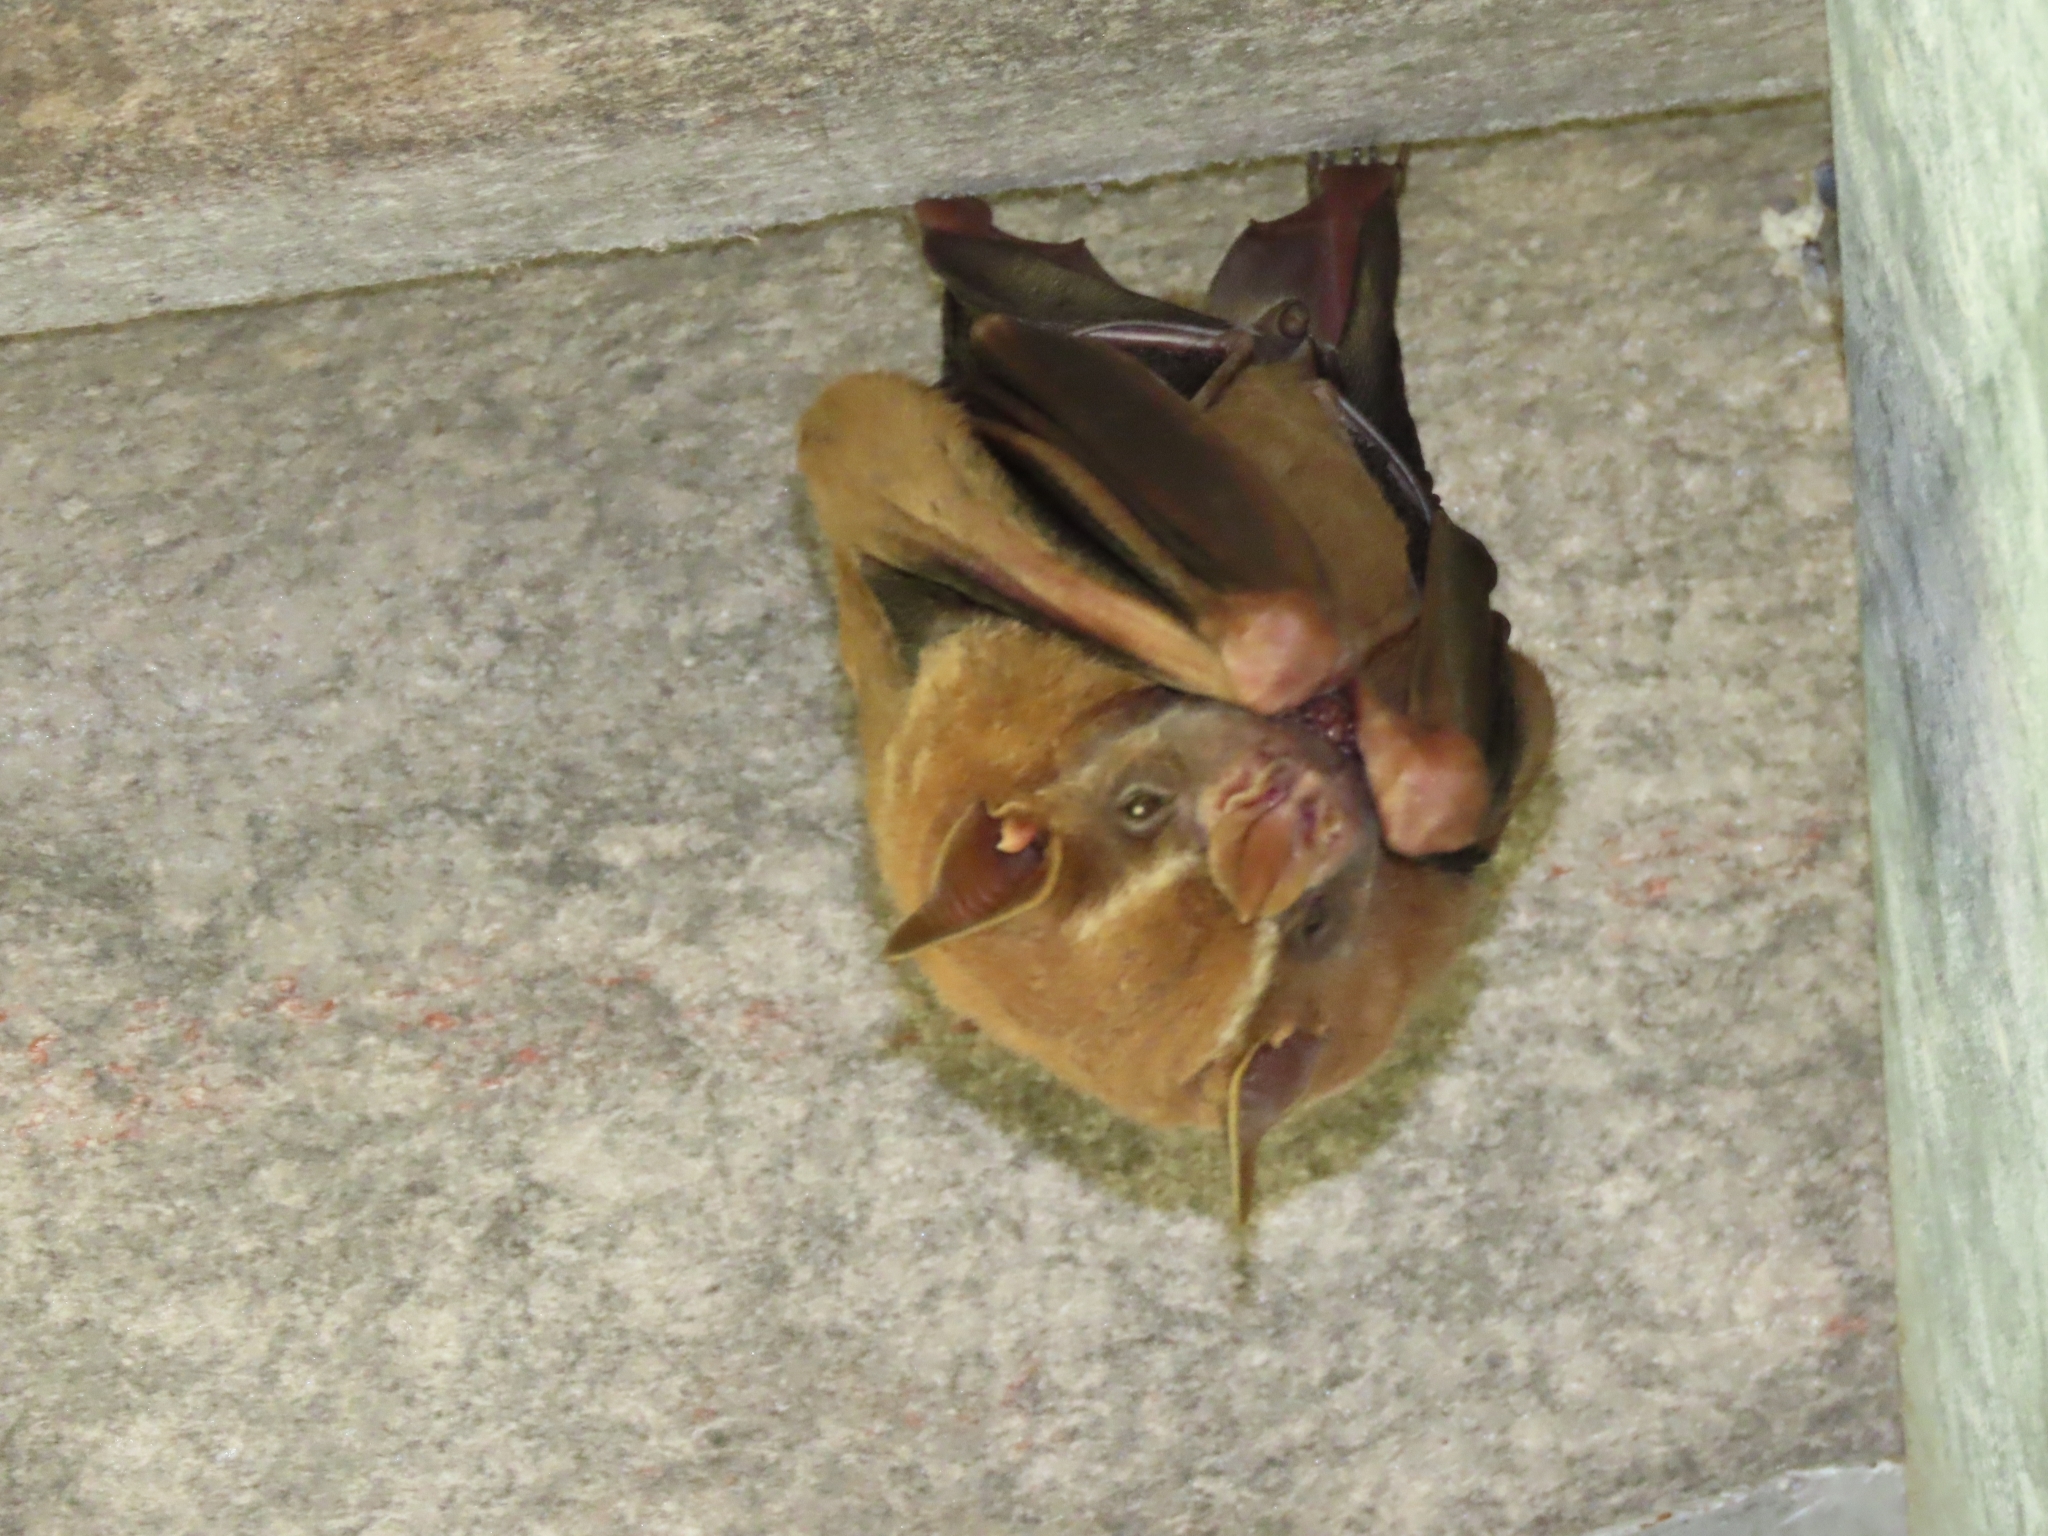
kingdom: Animalia
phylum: Chordata
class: Mammalia
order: Chiroptera
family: Phyllostomidae
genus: Artibeus
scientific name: Artibeus lituratus
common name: Great fruit-eating bat
